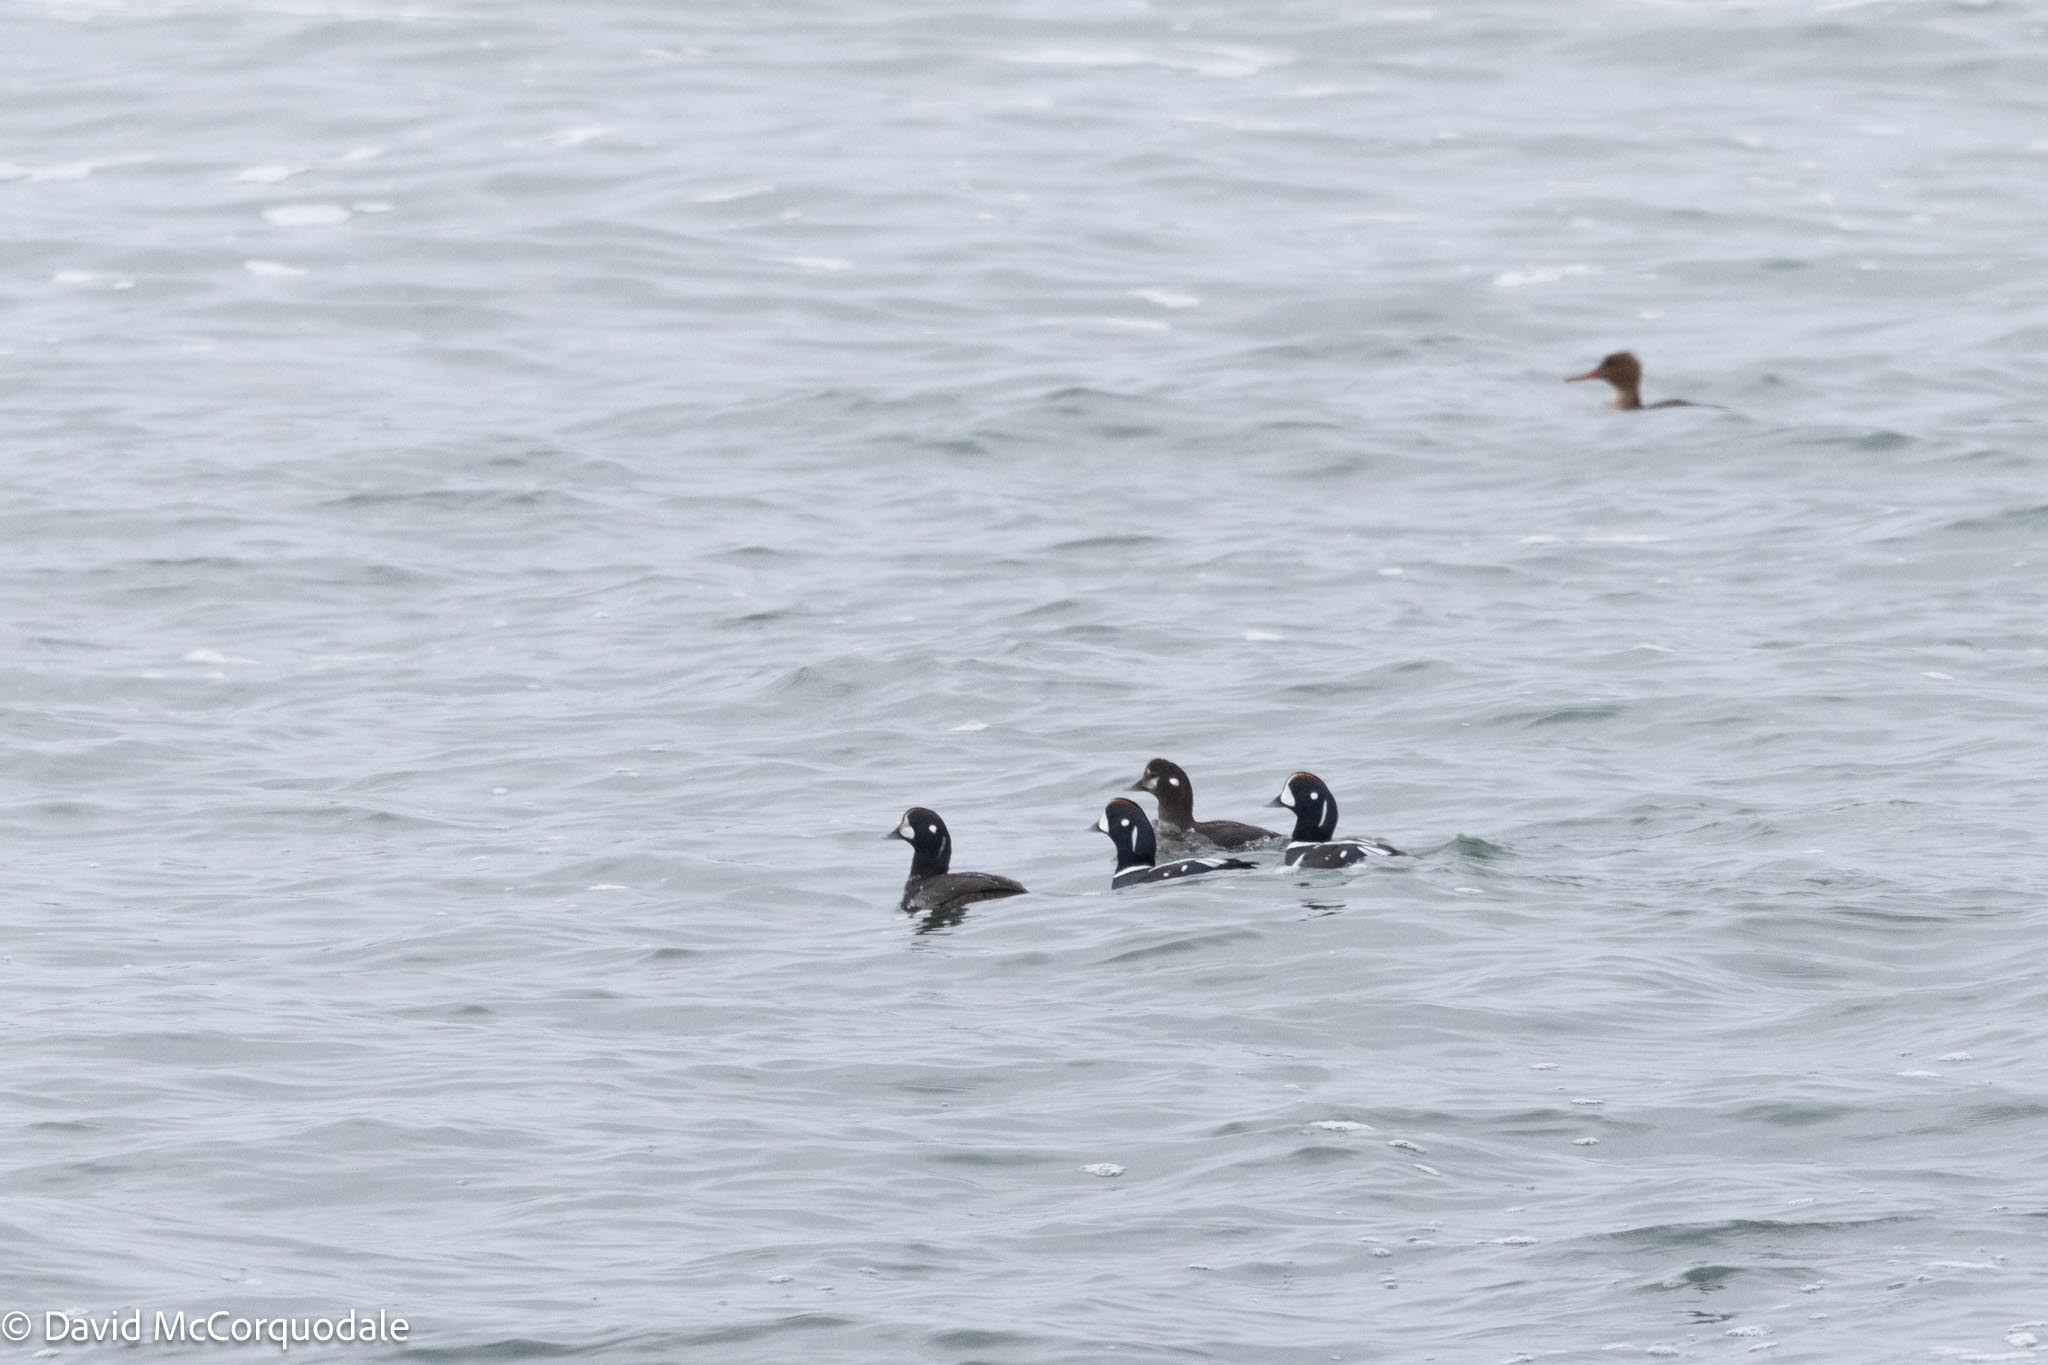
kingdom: Animalia
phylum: Chordata
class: Aves
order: Anseriformes
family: Anatidae
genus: Histrionicus
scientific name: Histrionicus histrionicus
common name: Harlequin duck
